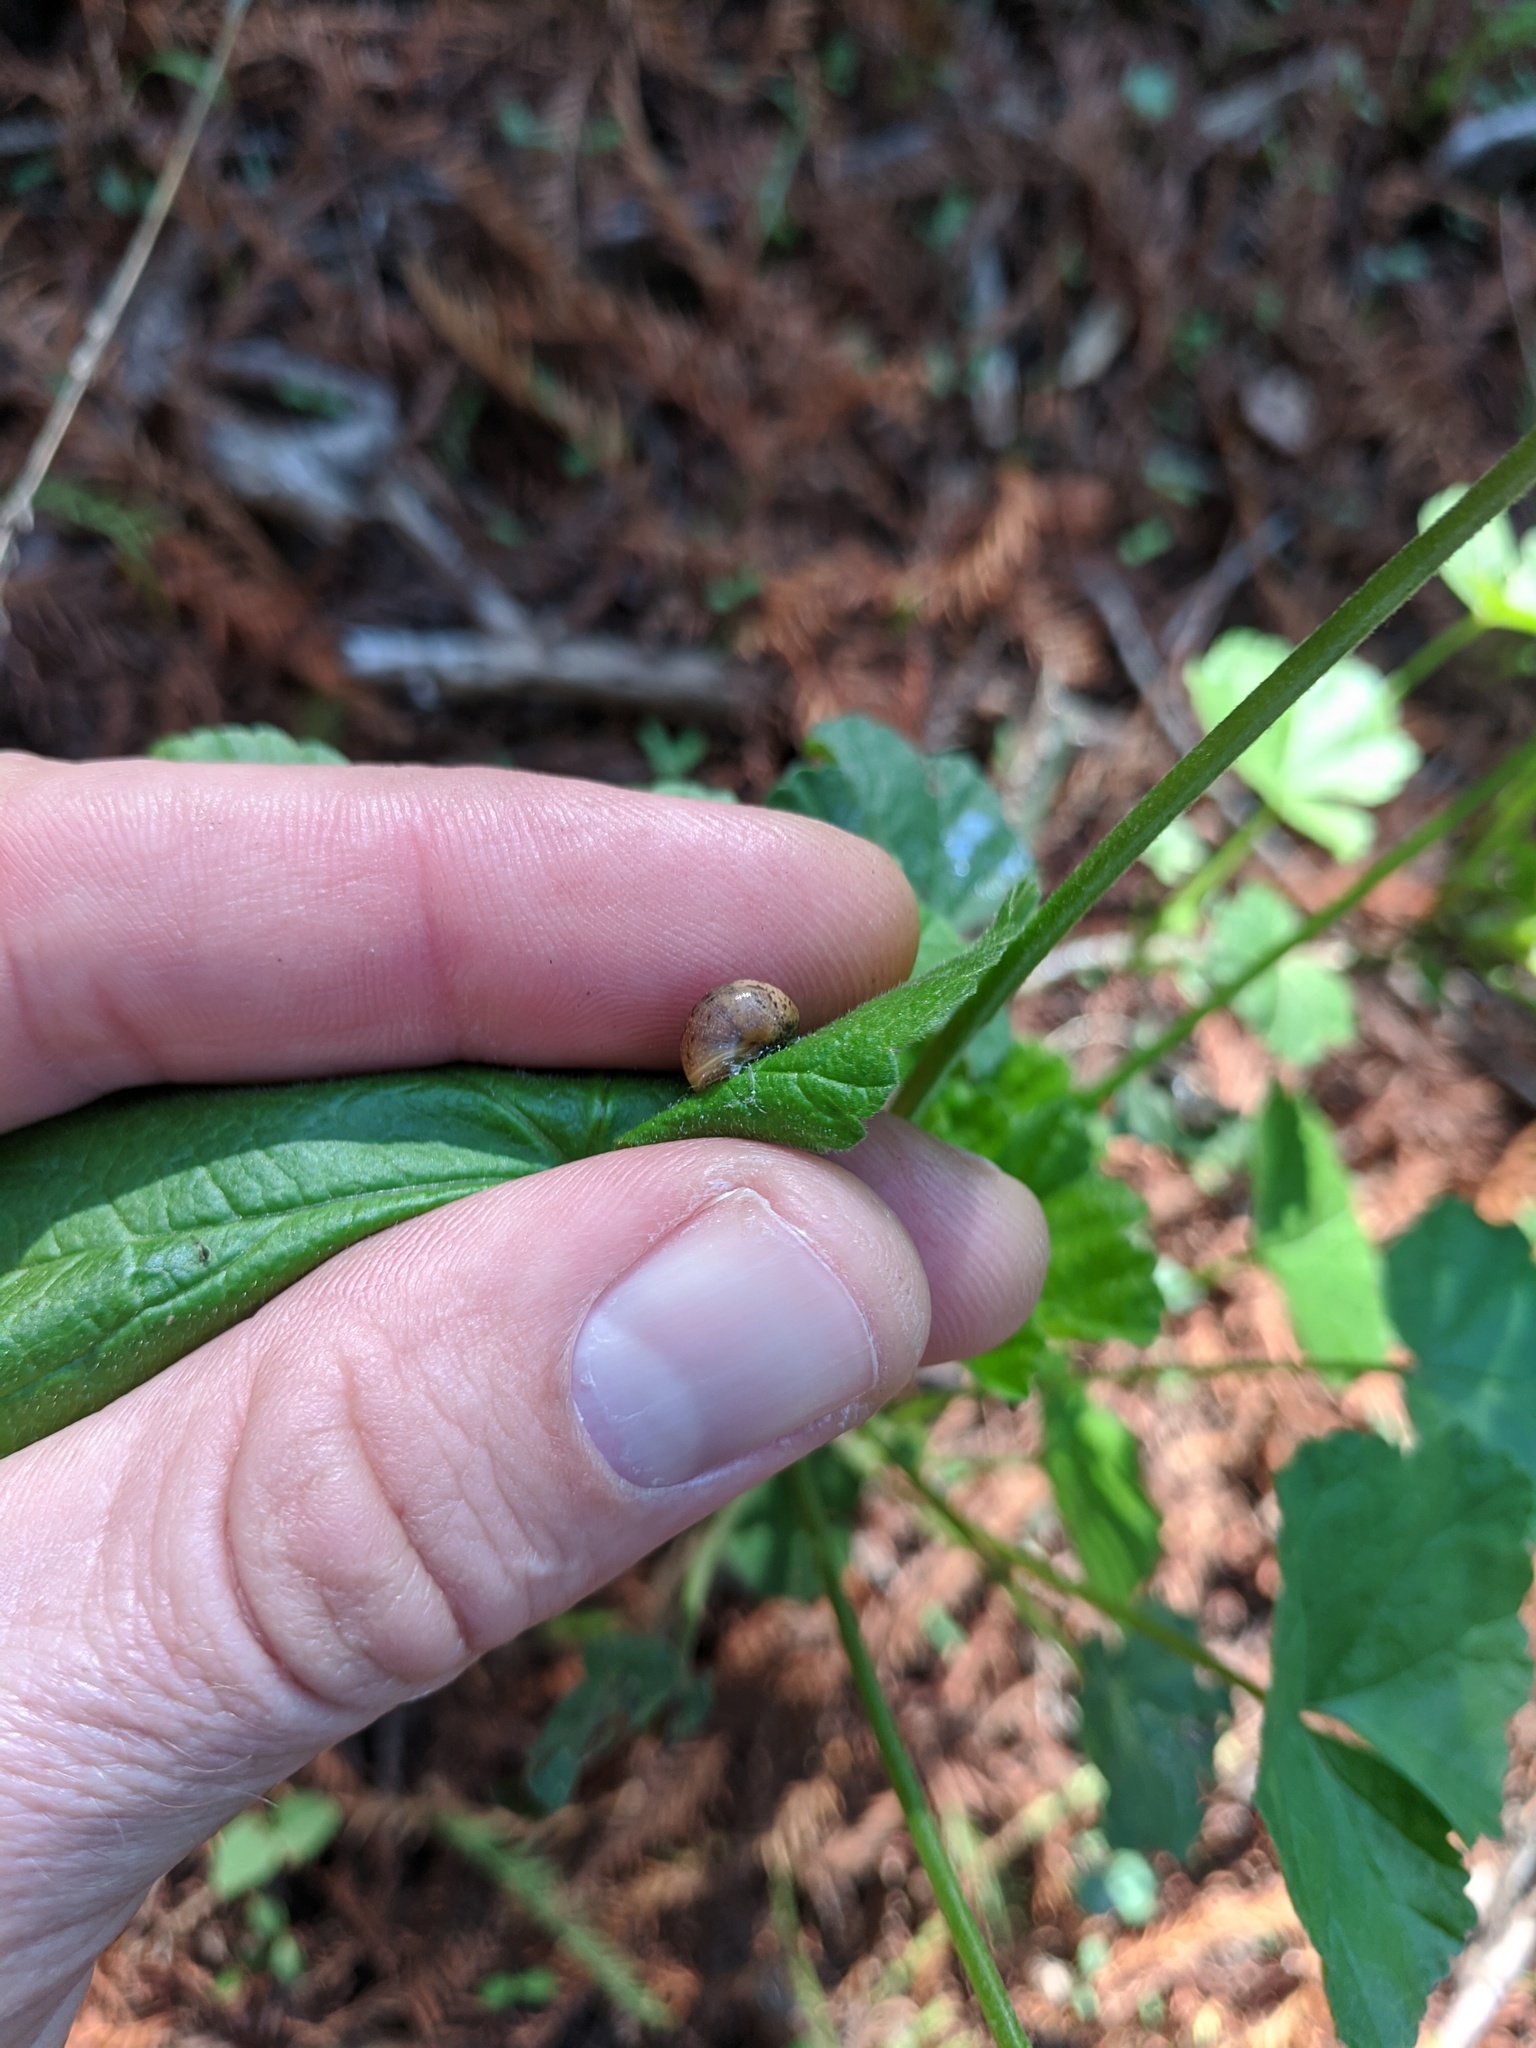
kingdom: Animalia
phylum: Mollusca
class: Gastropoda
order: Stylommatophora
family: Helicidae
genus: Cornu
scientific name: Cornu aspersum
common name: Brown garden snail
